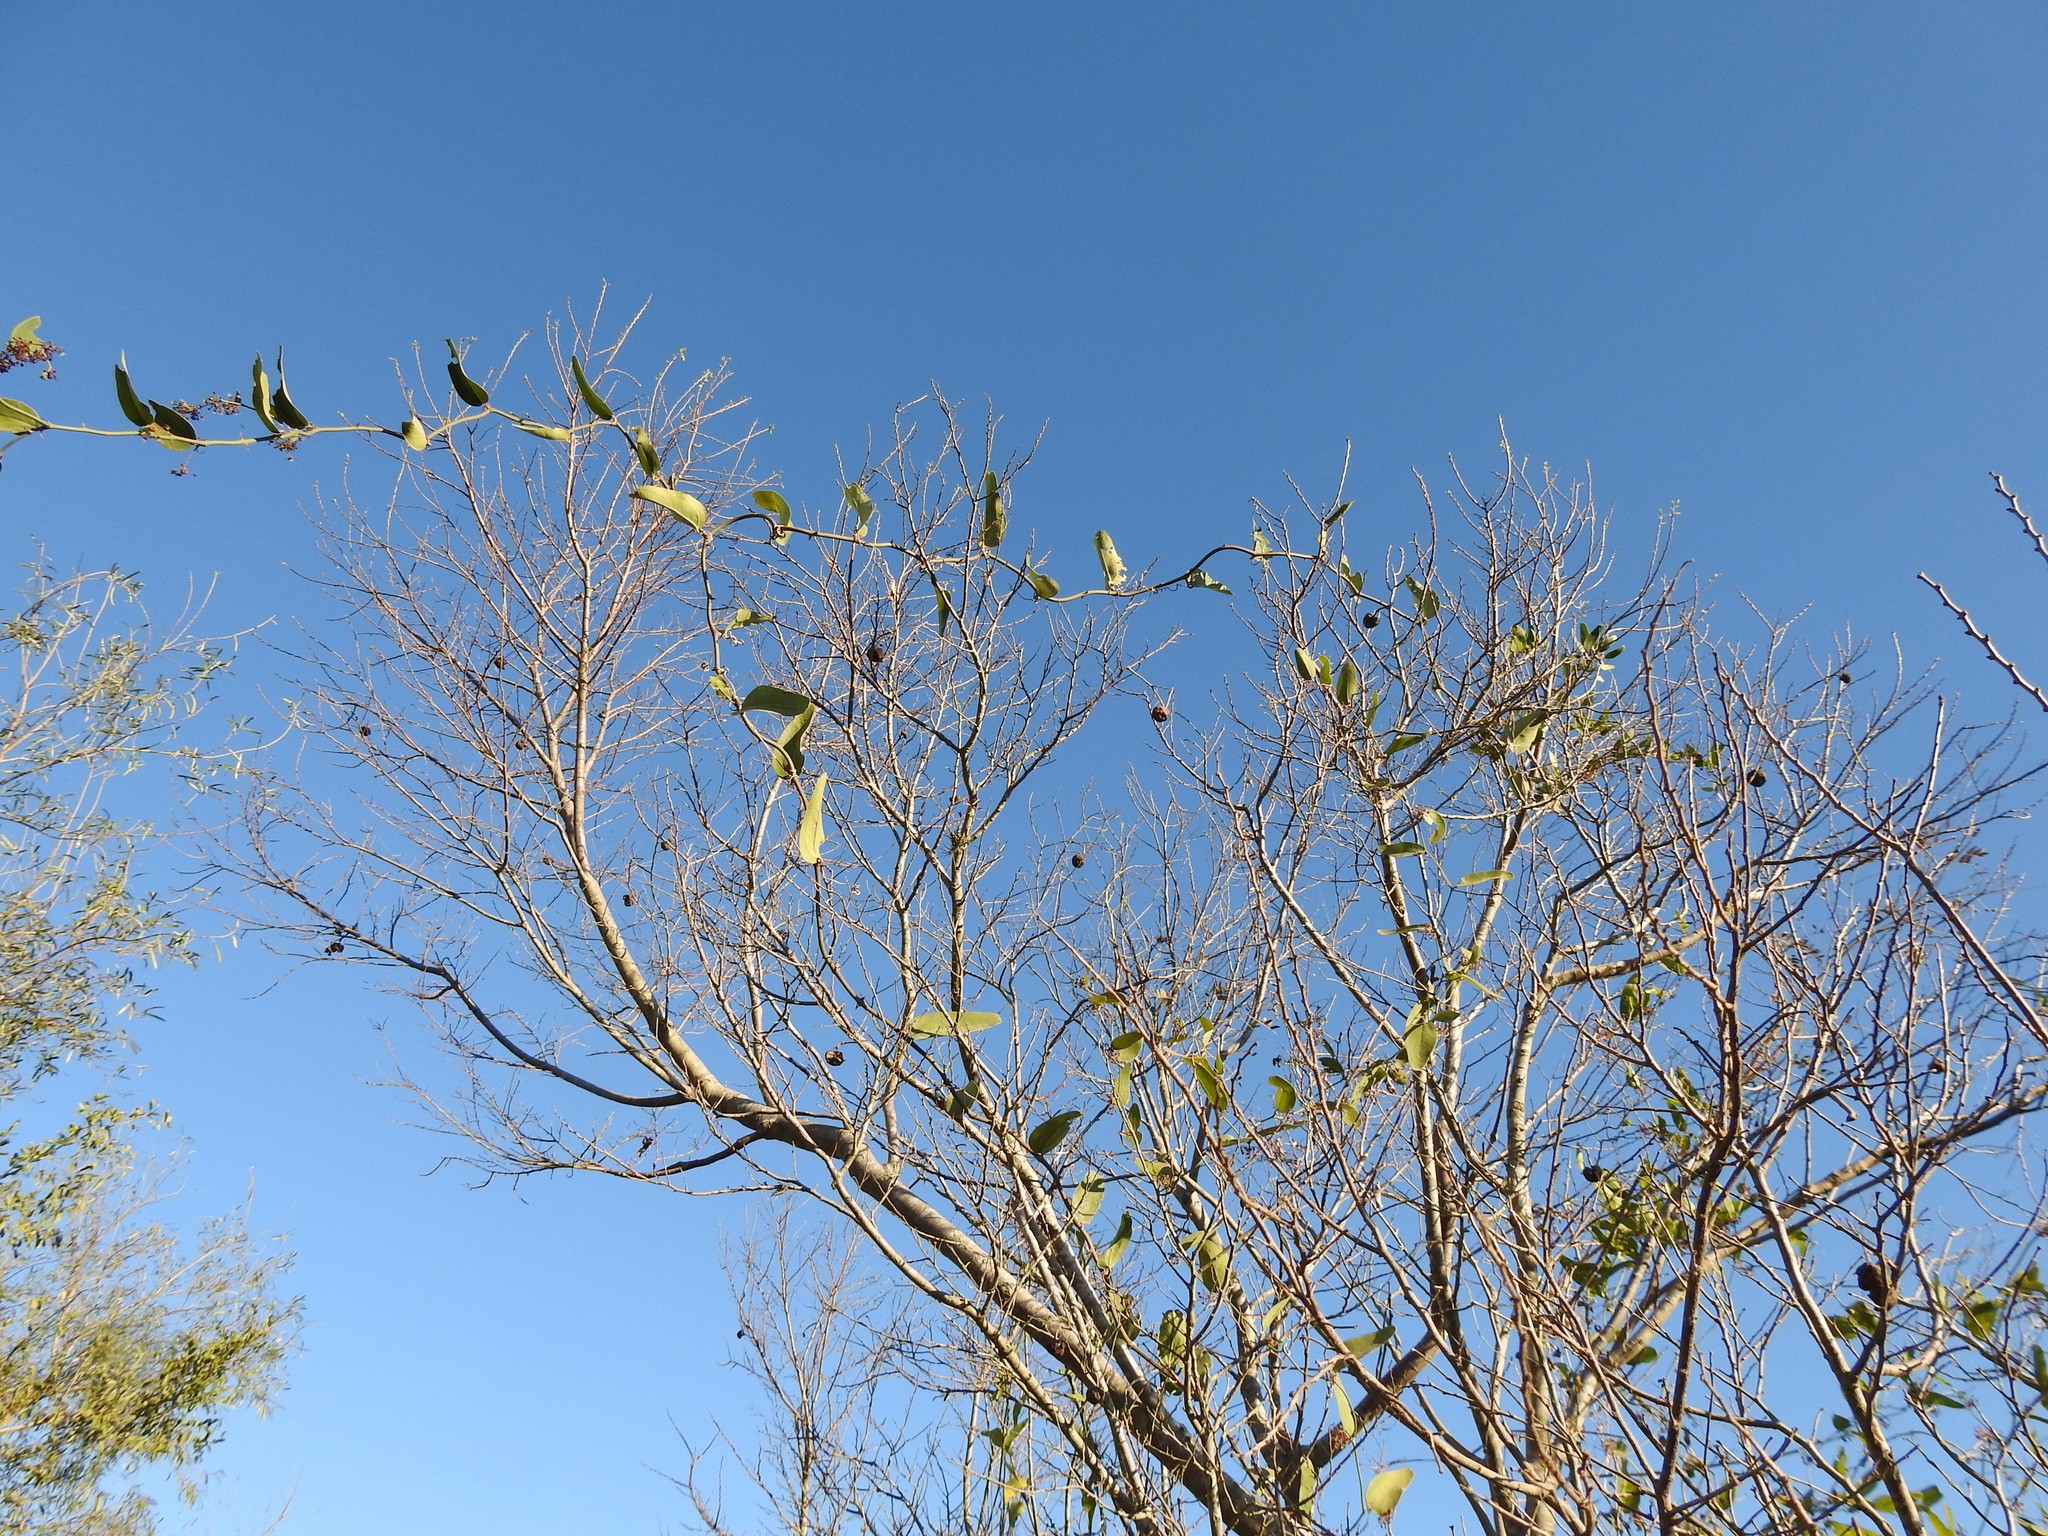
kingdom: Plantae
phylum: Tracheophyta
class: Liliopsida
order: Liliales
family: Smilacaceae
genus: Smilax
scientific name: Smilax campestris
